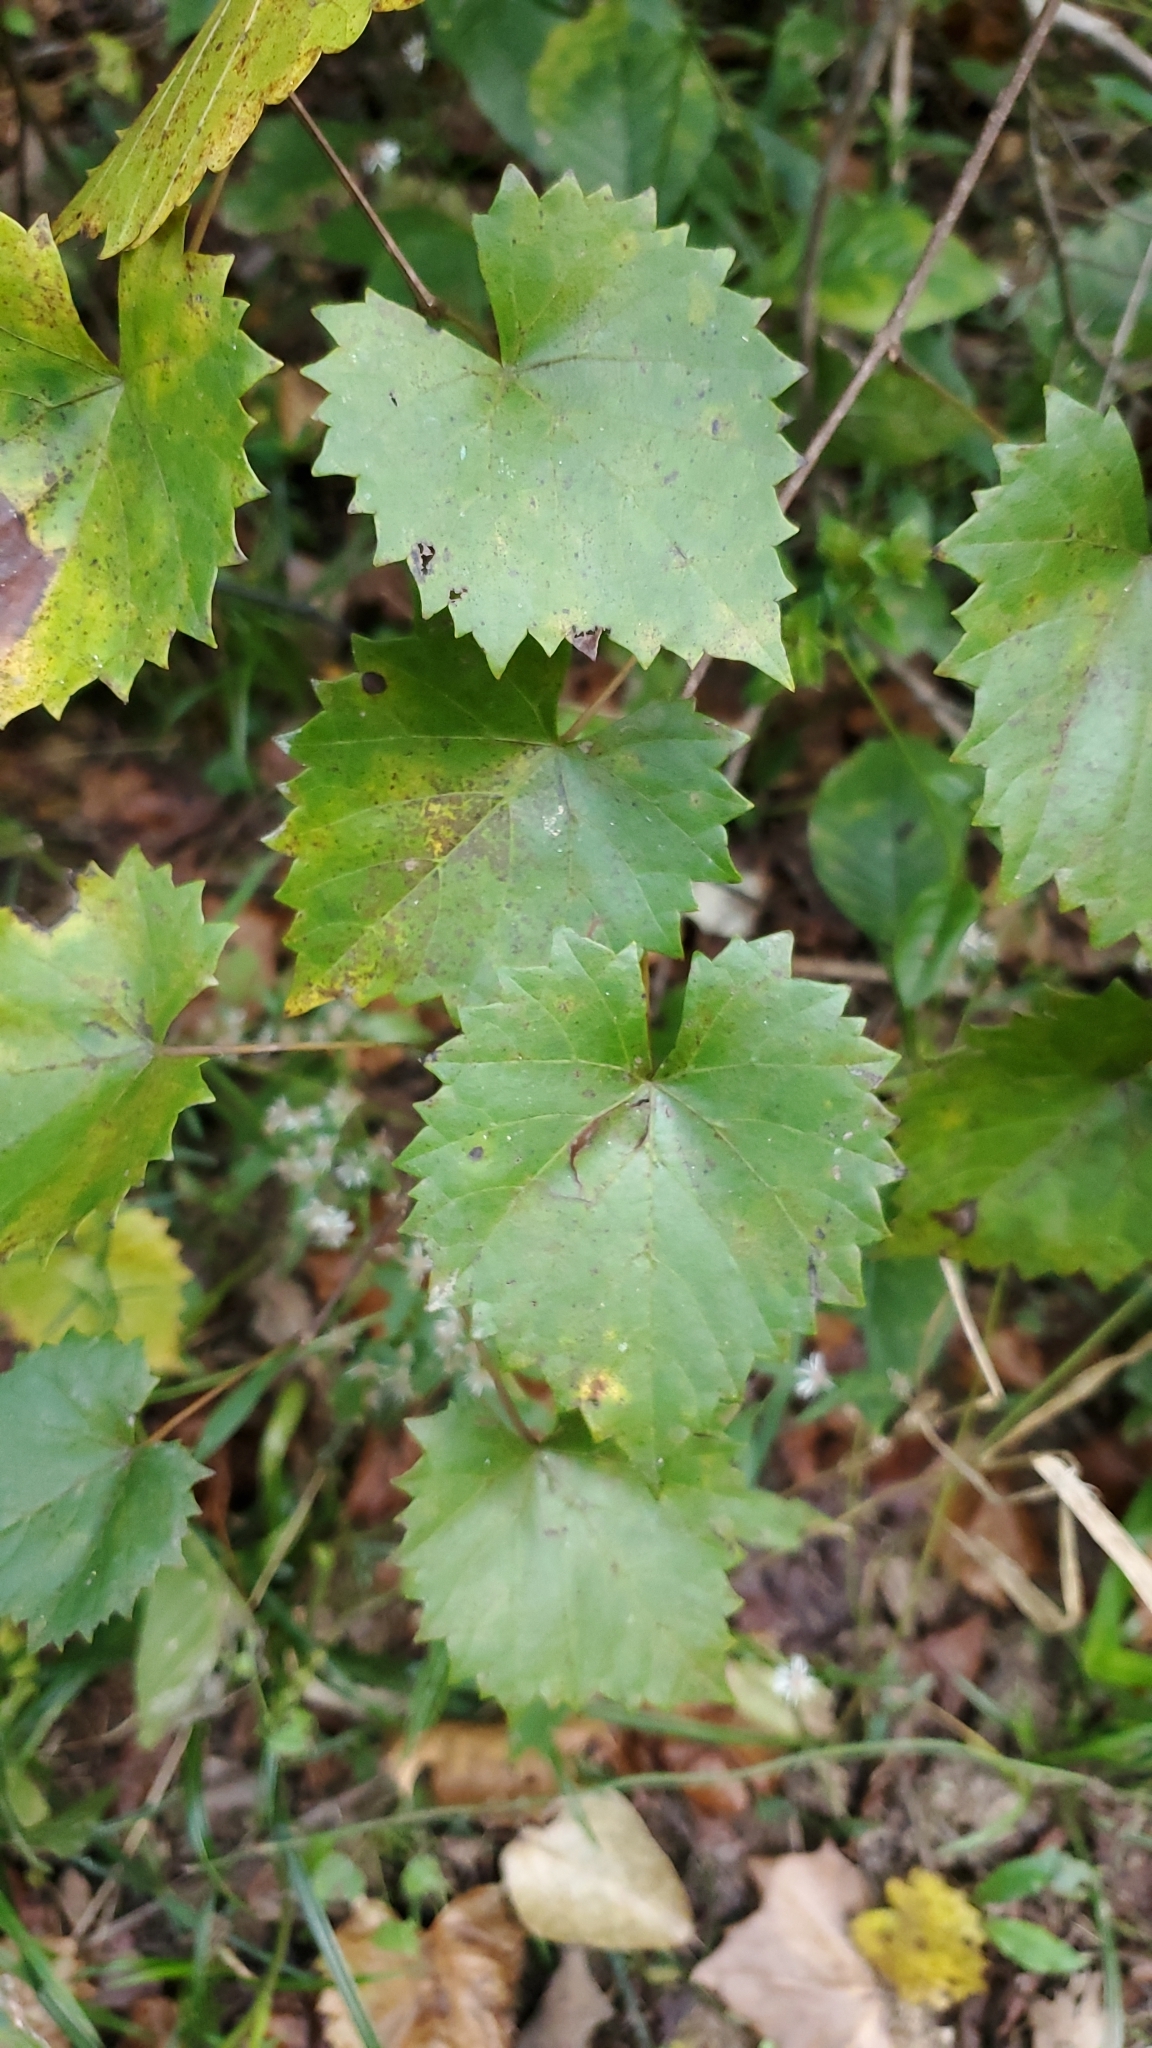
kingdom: Plantae
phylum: Tracheophyta
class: Magnoliopsida
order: Vitales
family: Vitaceae
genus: Vitis
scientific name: Vitis rotundifolia
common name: Muscadine grape
